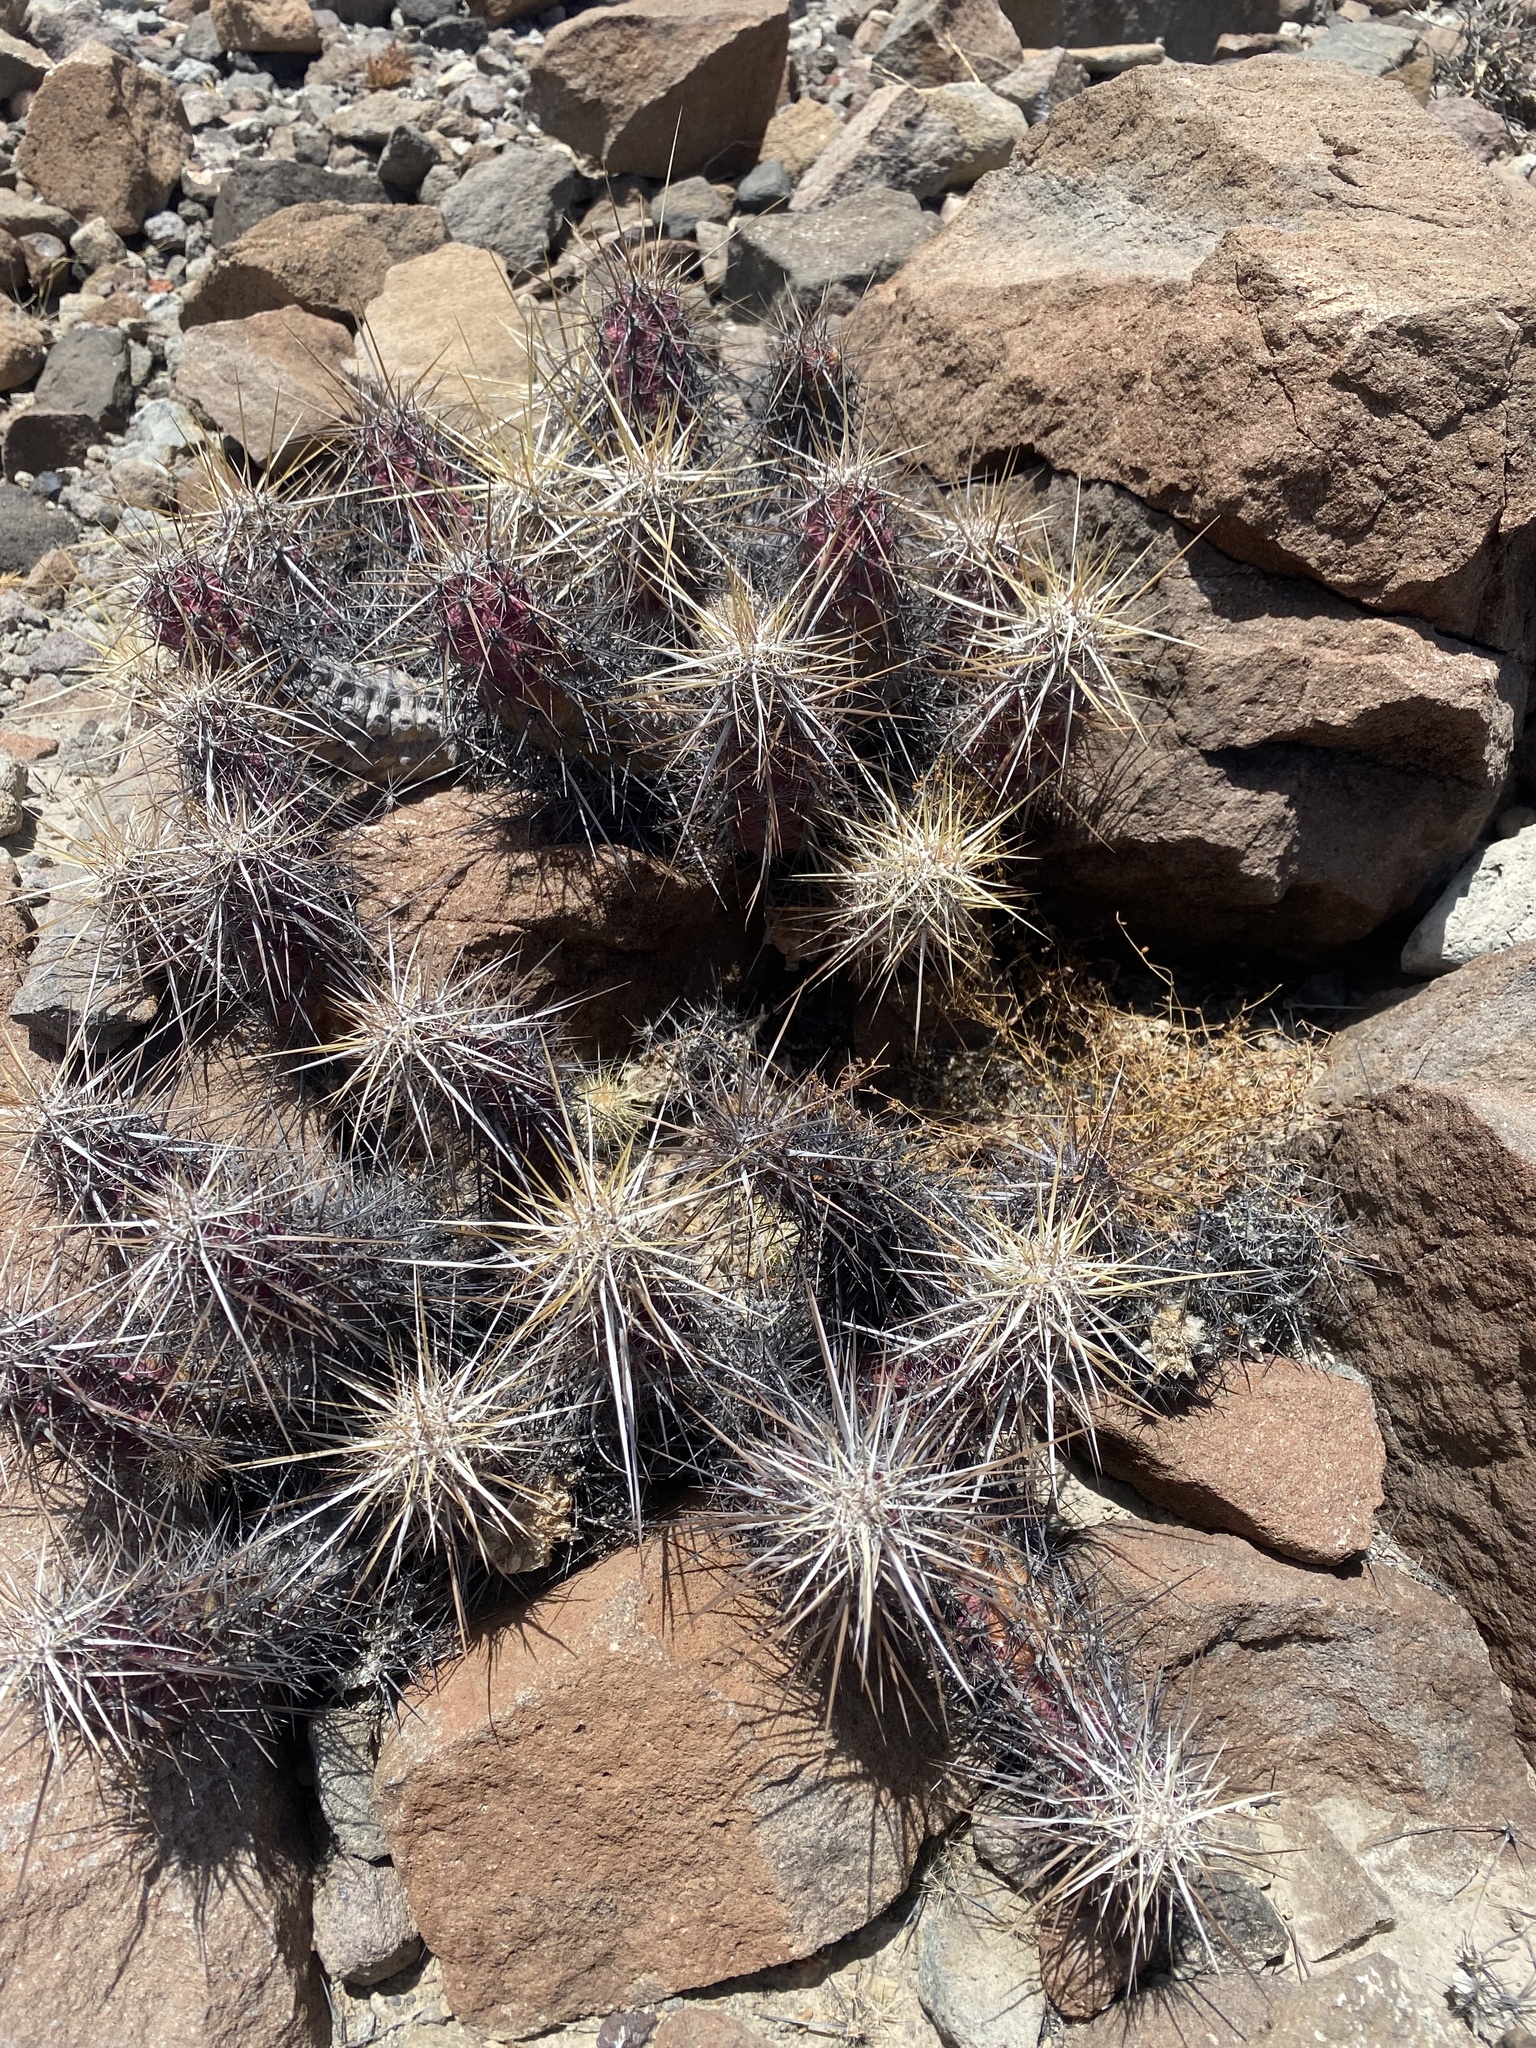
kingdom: Plantae
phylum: Tracheophyta
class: Magnoliopsida
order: Caryophyllales
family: Cactaceae
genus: Echinocereus
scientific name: Echinocereus brandegeei
